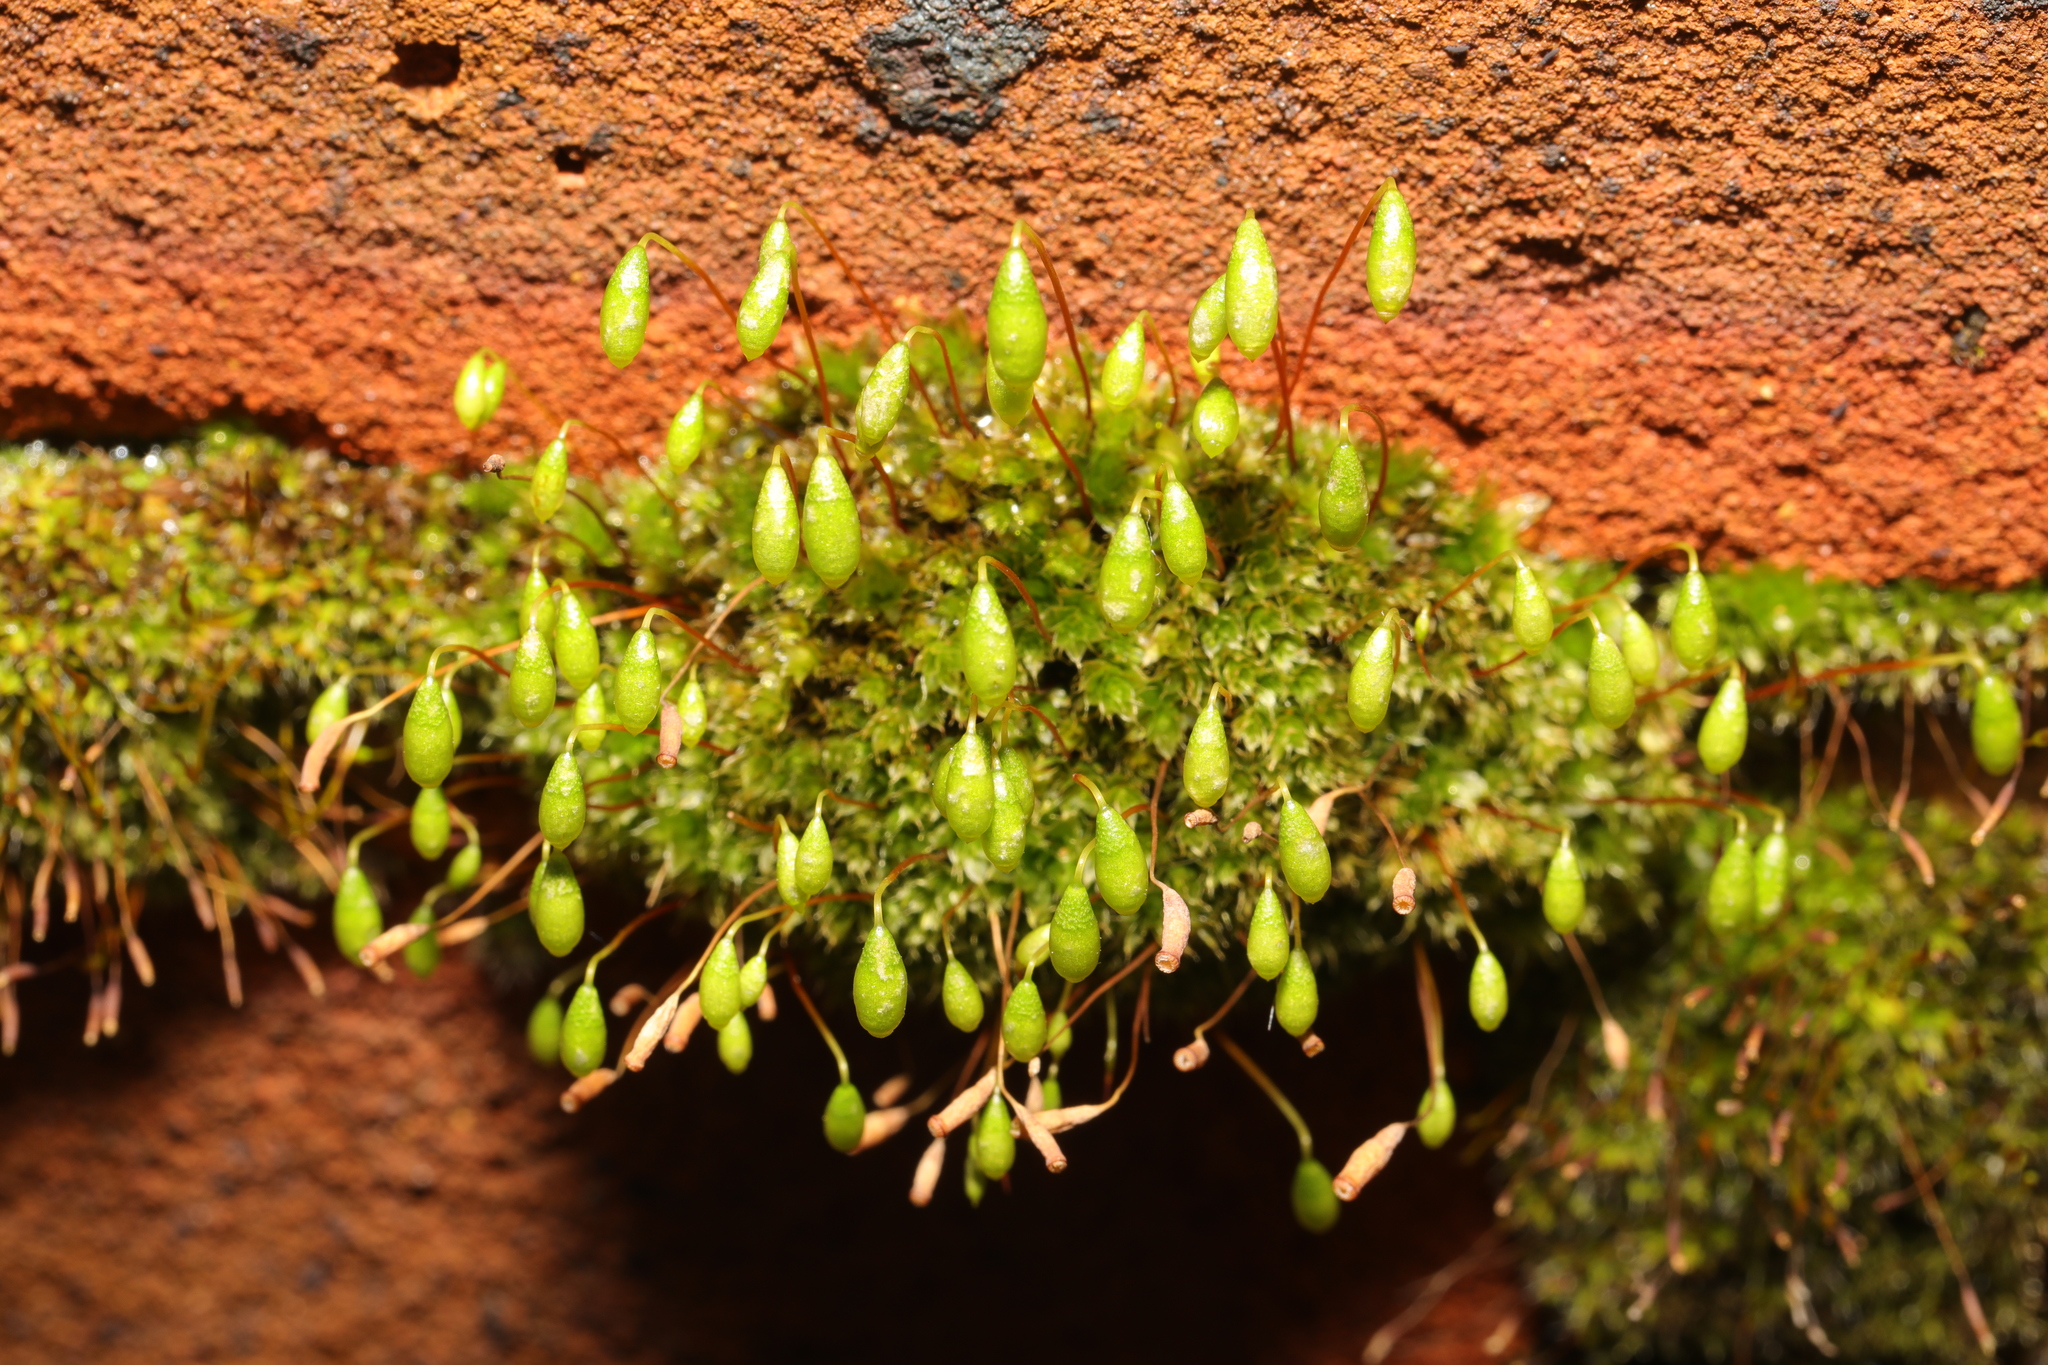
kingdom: Plantae
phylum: Bryophyta
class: Bryopsida
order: Bryales
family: Bryaceae
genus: Rosulabryum
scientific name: Rosulabryum capillare
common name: Capillary thread-moss
